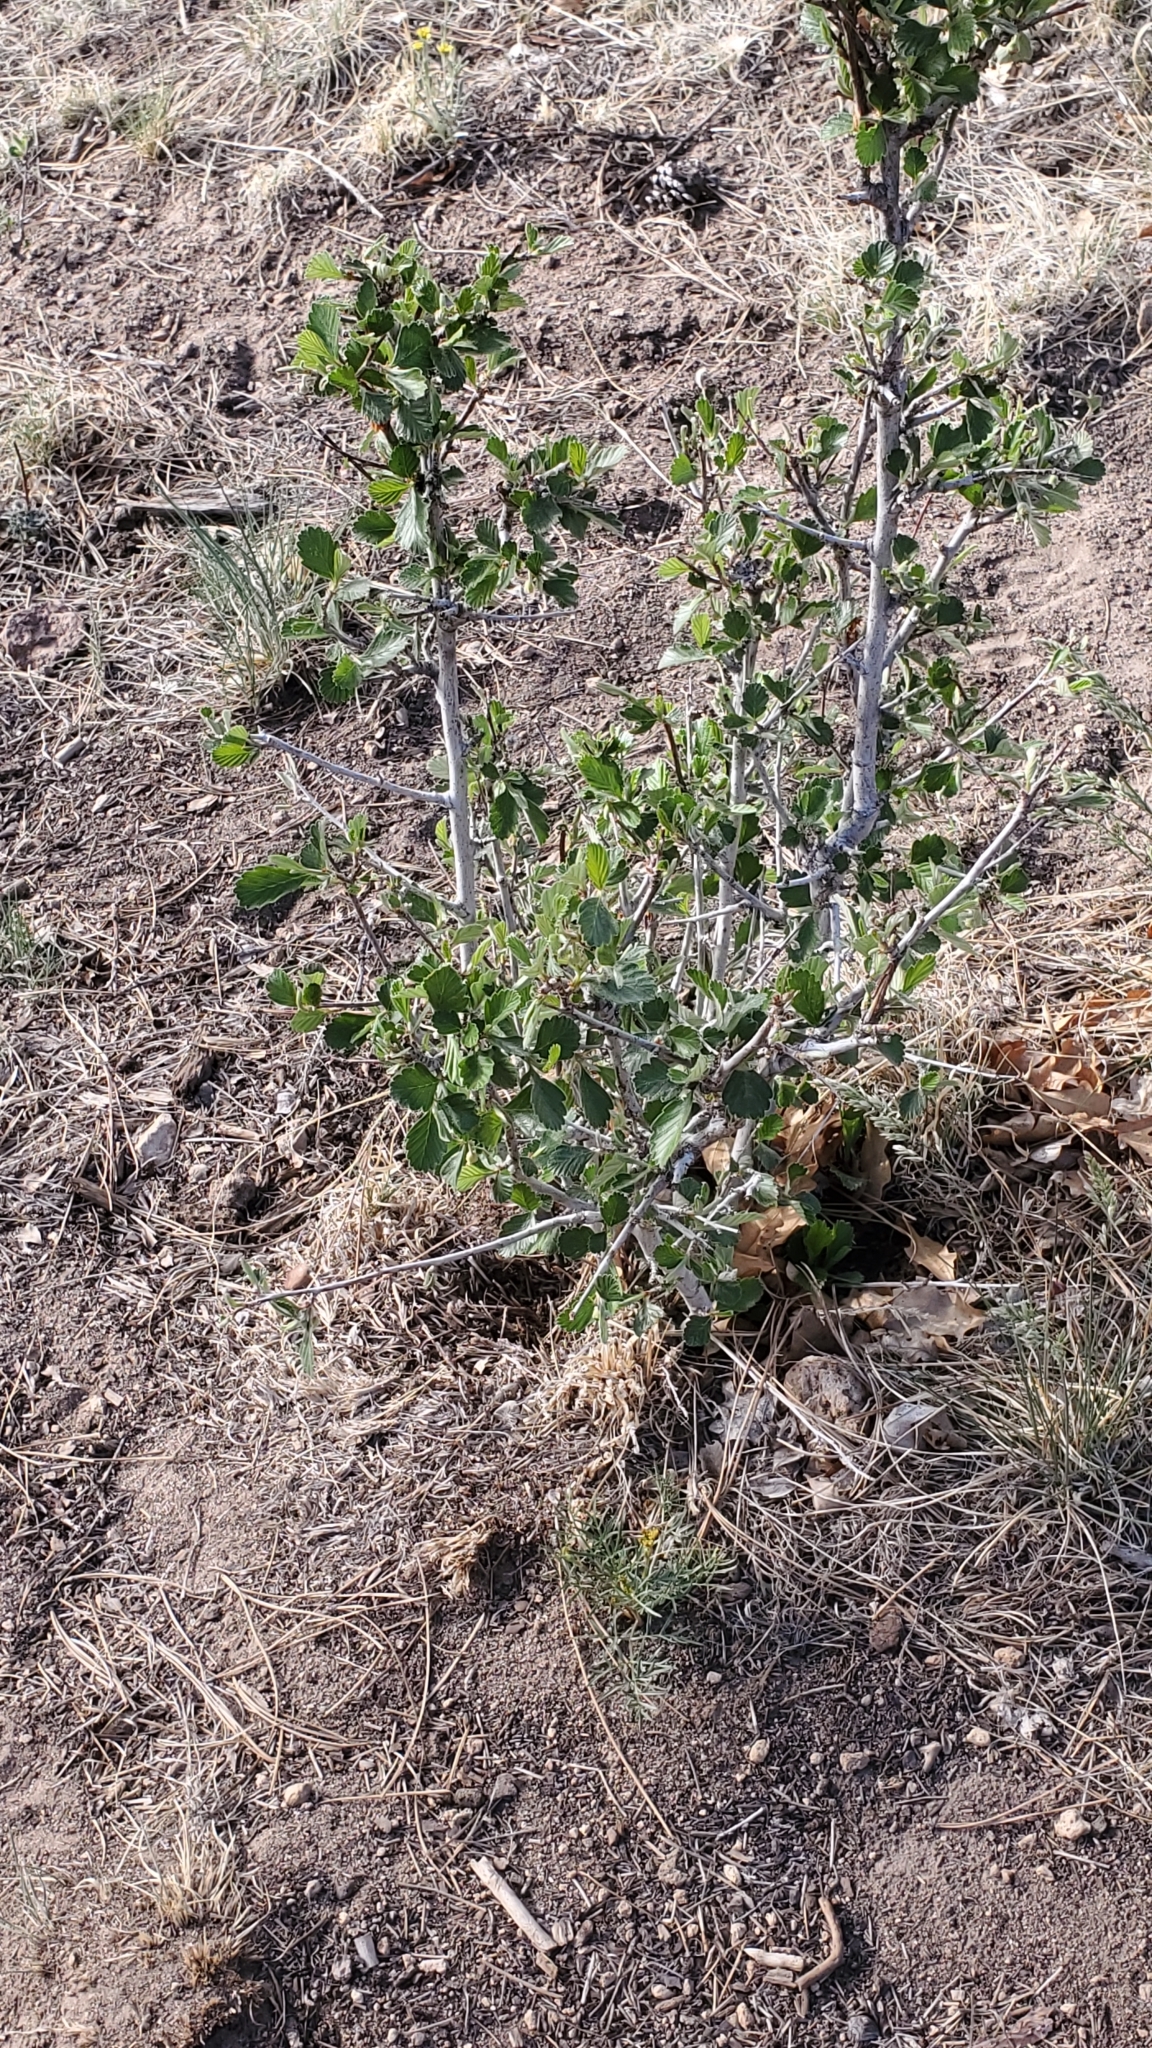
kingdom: Plantae
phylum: Tracheophyta
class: Magnoliopsida
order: Rosales
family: Rosaceae
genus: Cercocarpus
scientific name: Cercocarpus montanus
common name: Alder-leaf cercocarpus
